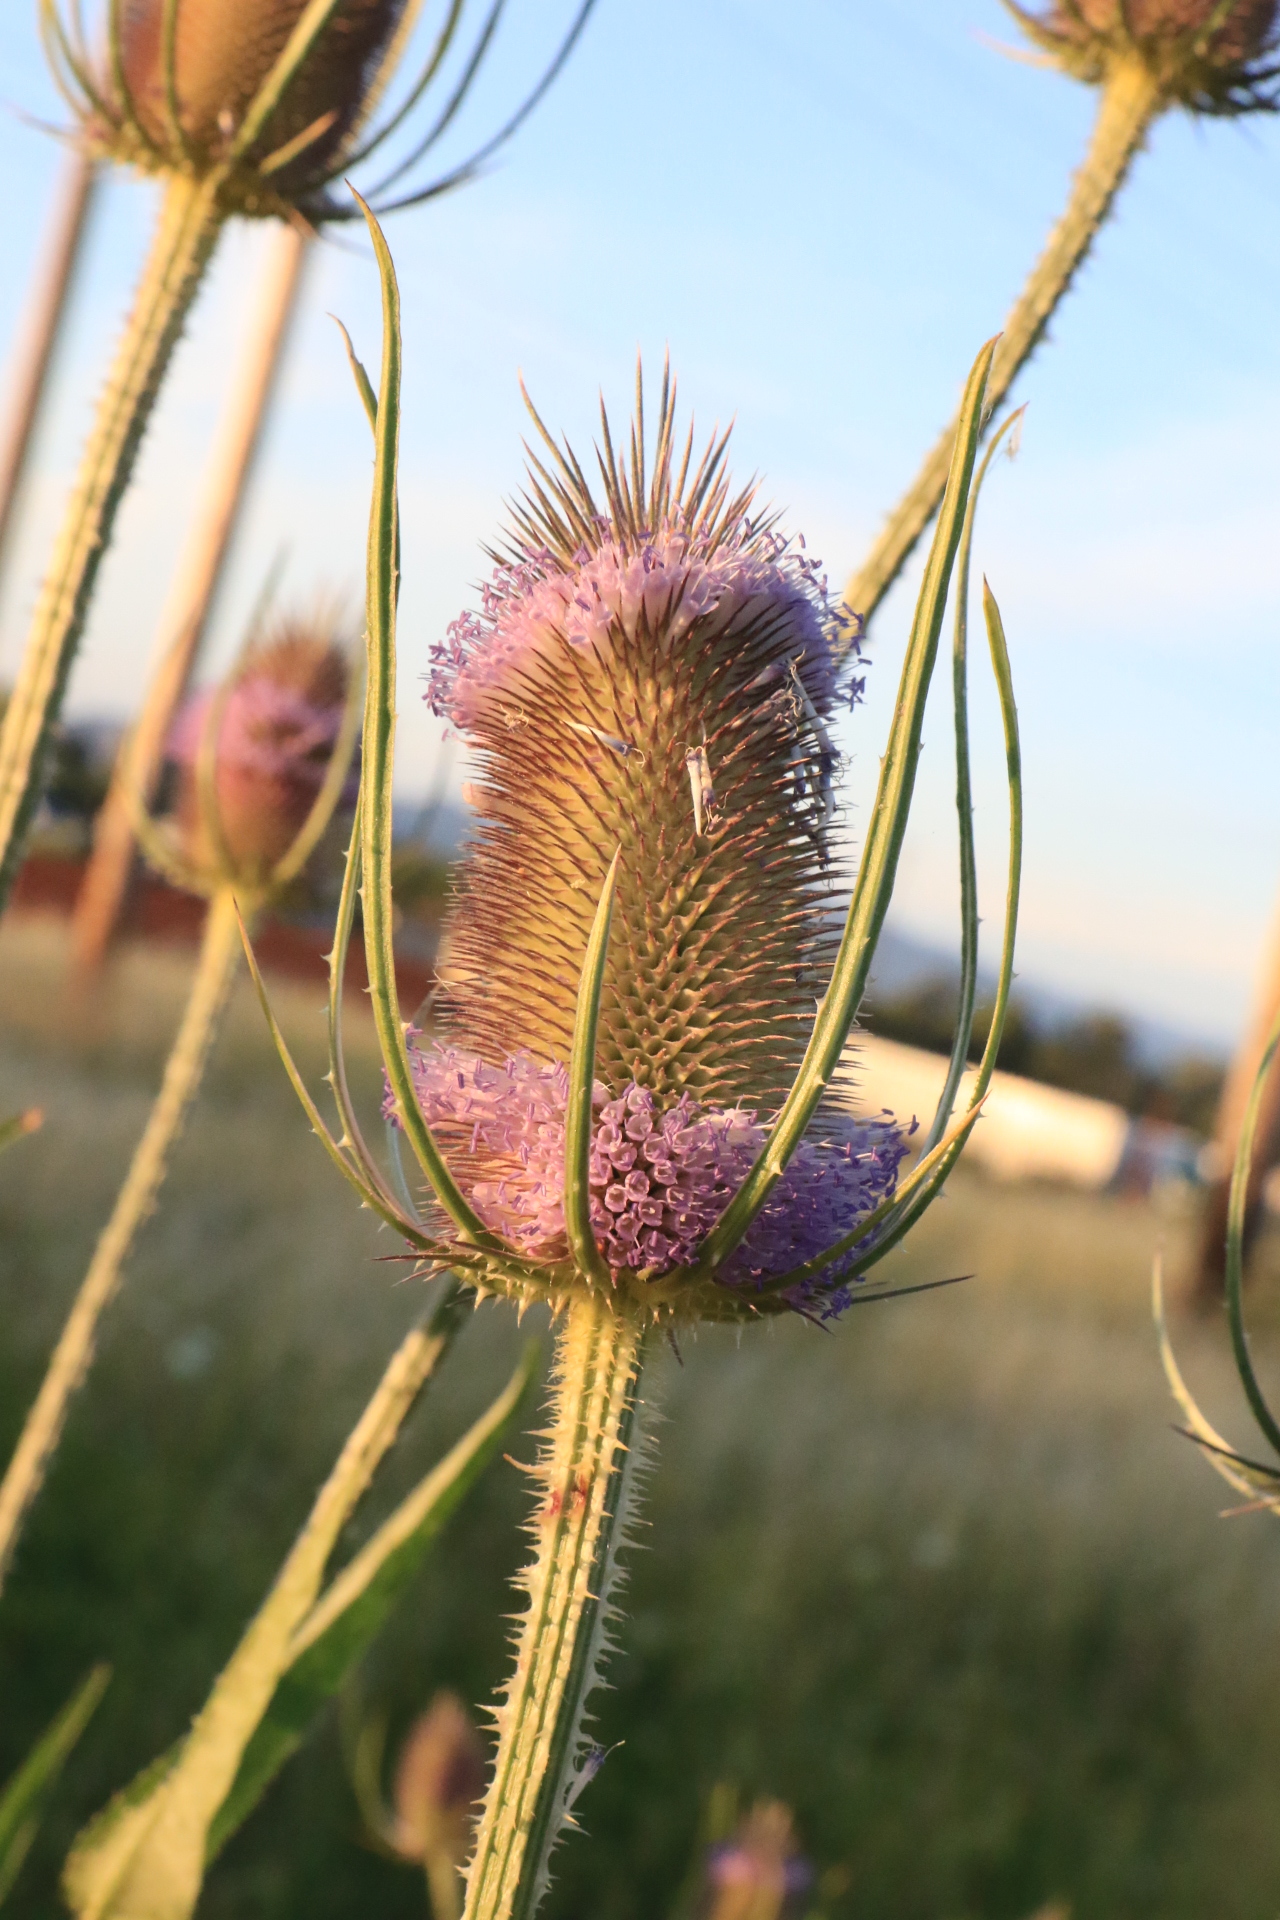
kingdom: Plantae
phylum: Tracheophyta
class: Magnoliopsida
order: Dipsacales
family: Caprifoliaceae
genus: Dipsacus
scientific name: Dipsacus fullonum
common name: Teasel
